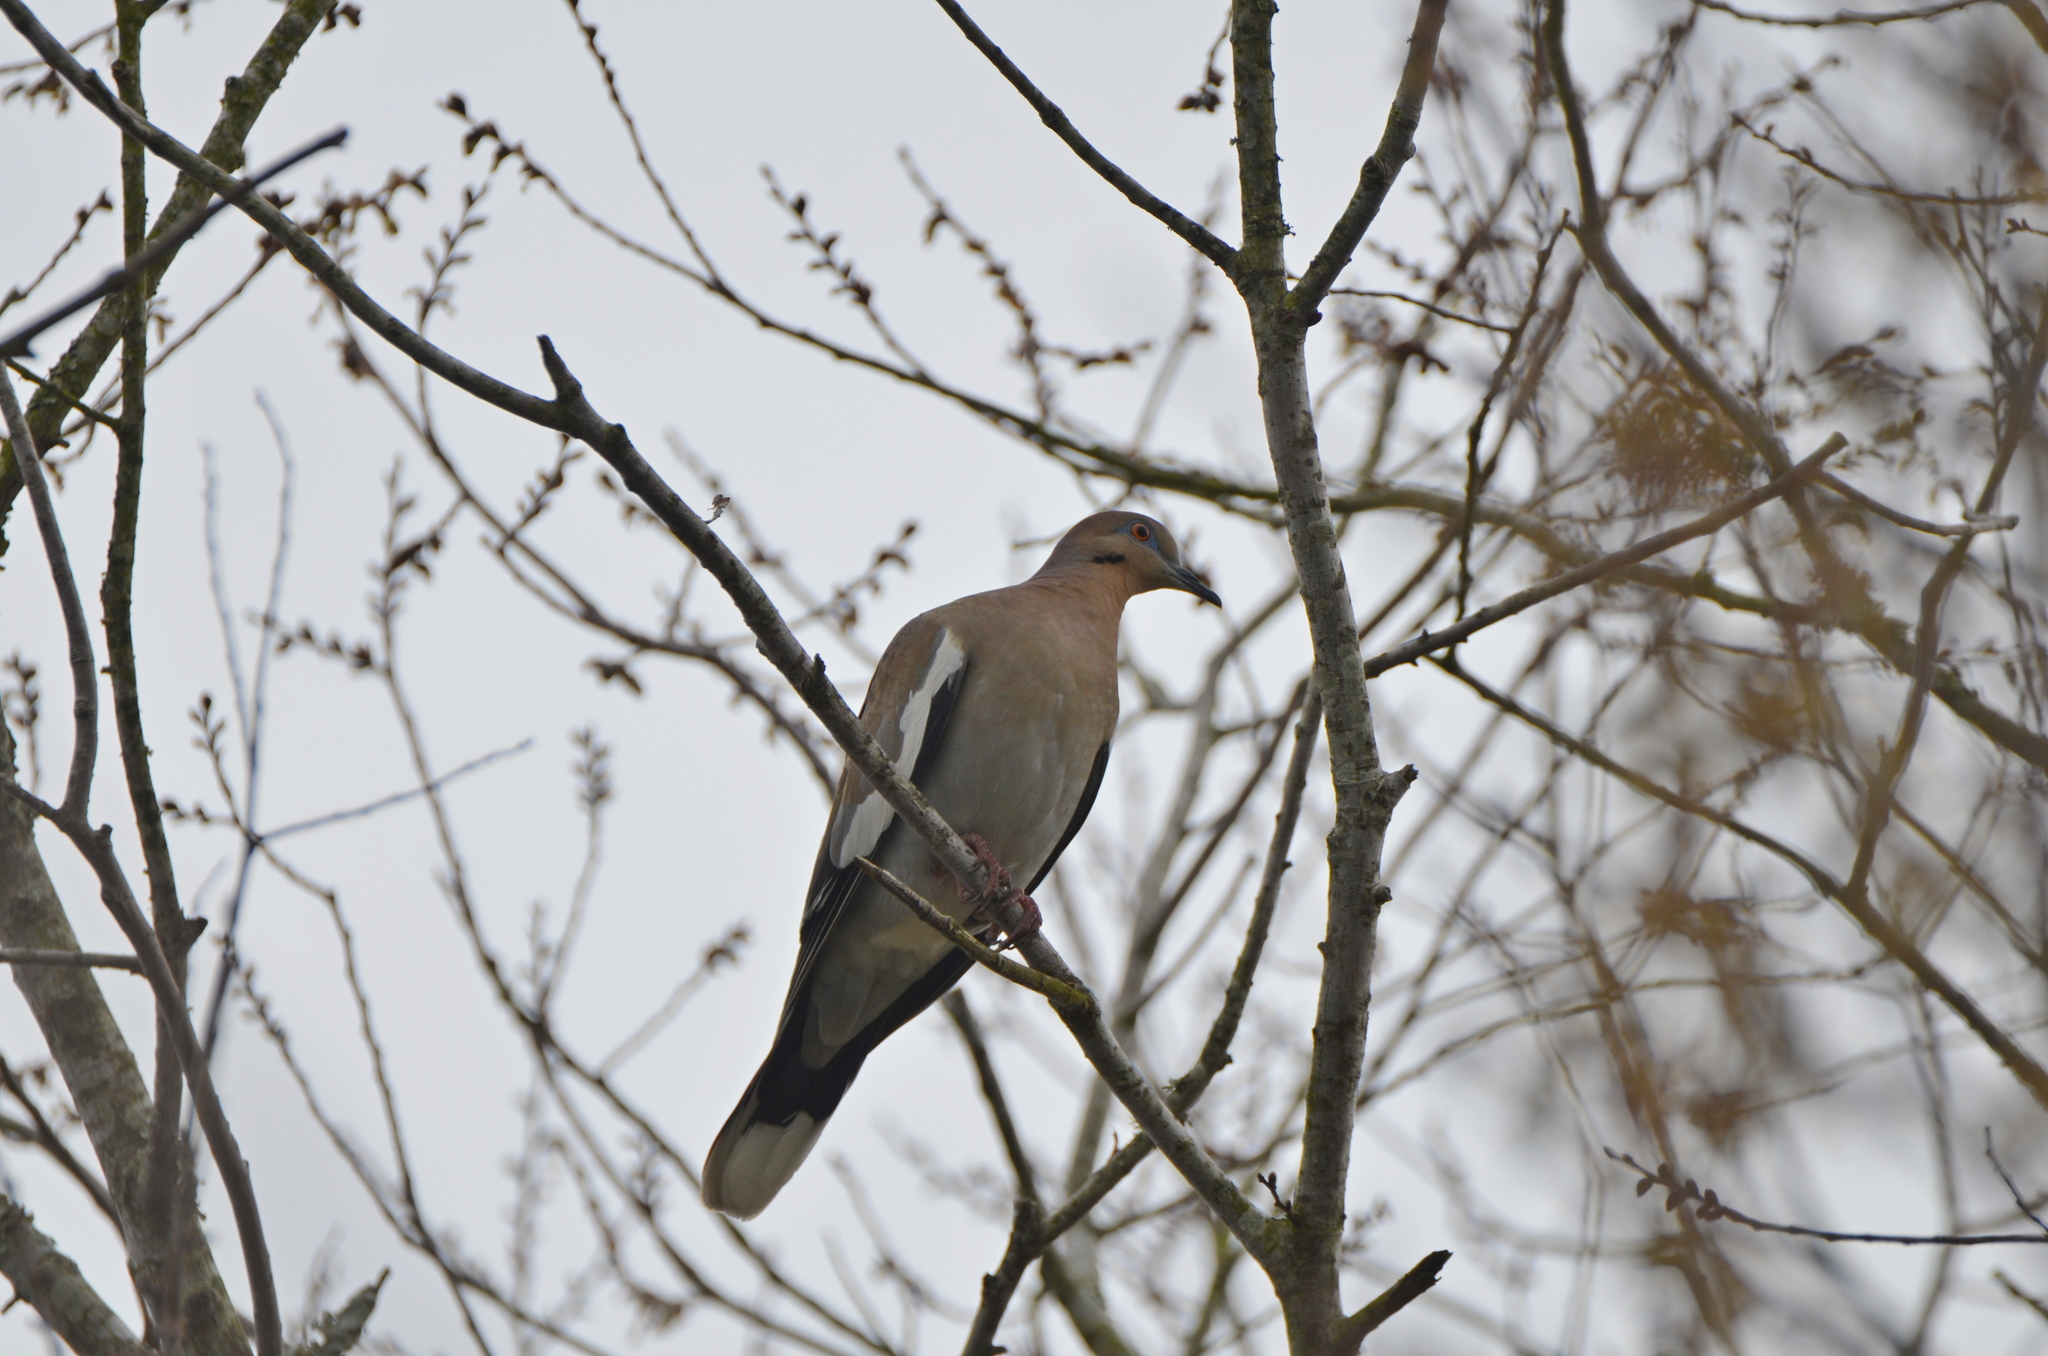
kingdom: Animalia
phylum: Chordata
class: Aves
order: Columbiformes
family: Columbidae
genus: Zenaida
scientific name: Zenaida asiatica
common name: White-winged dove
